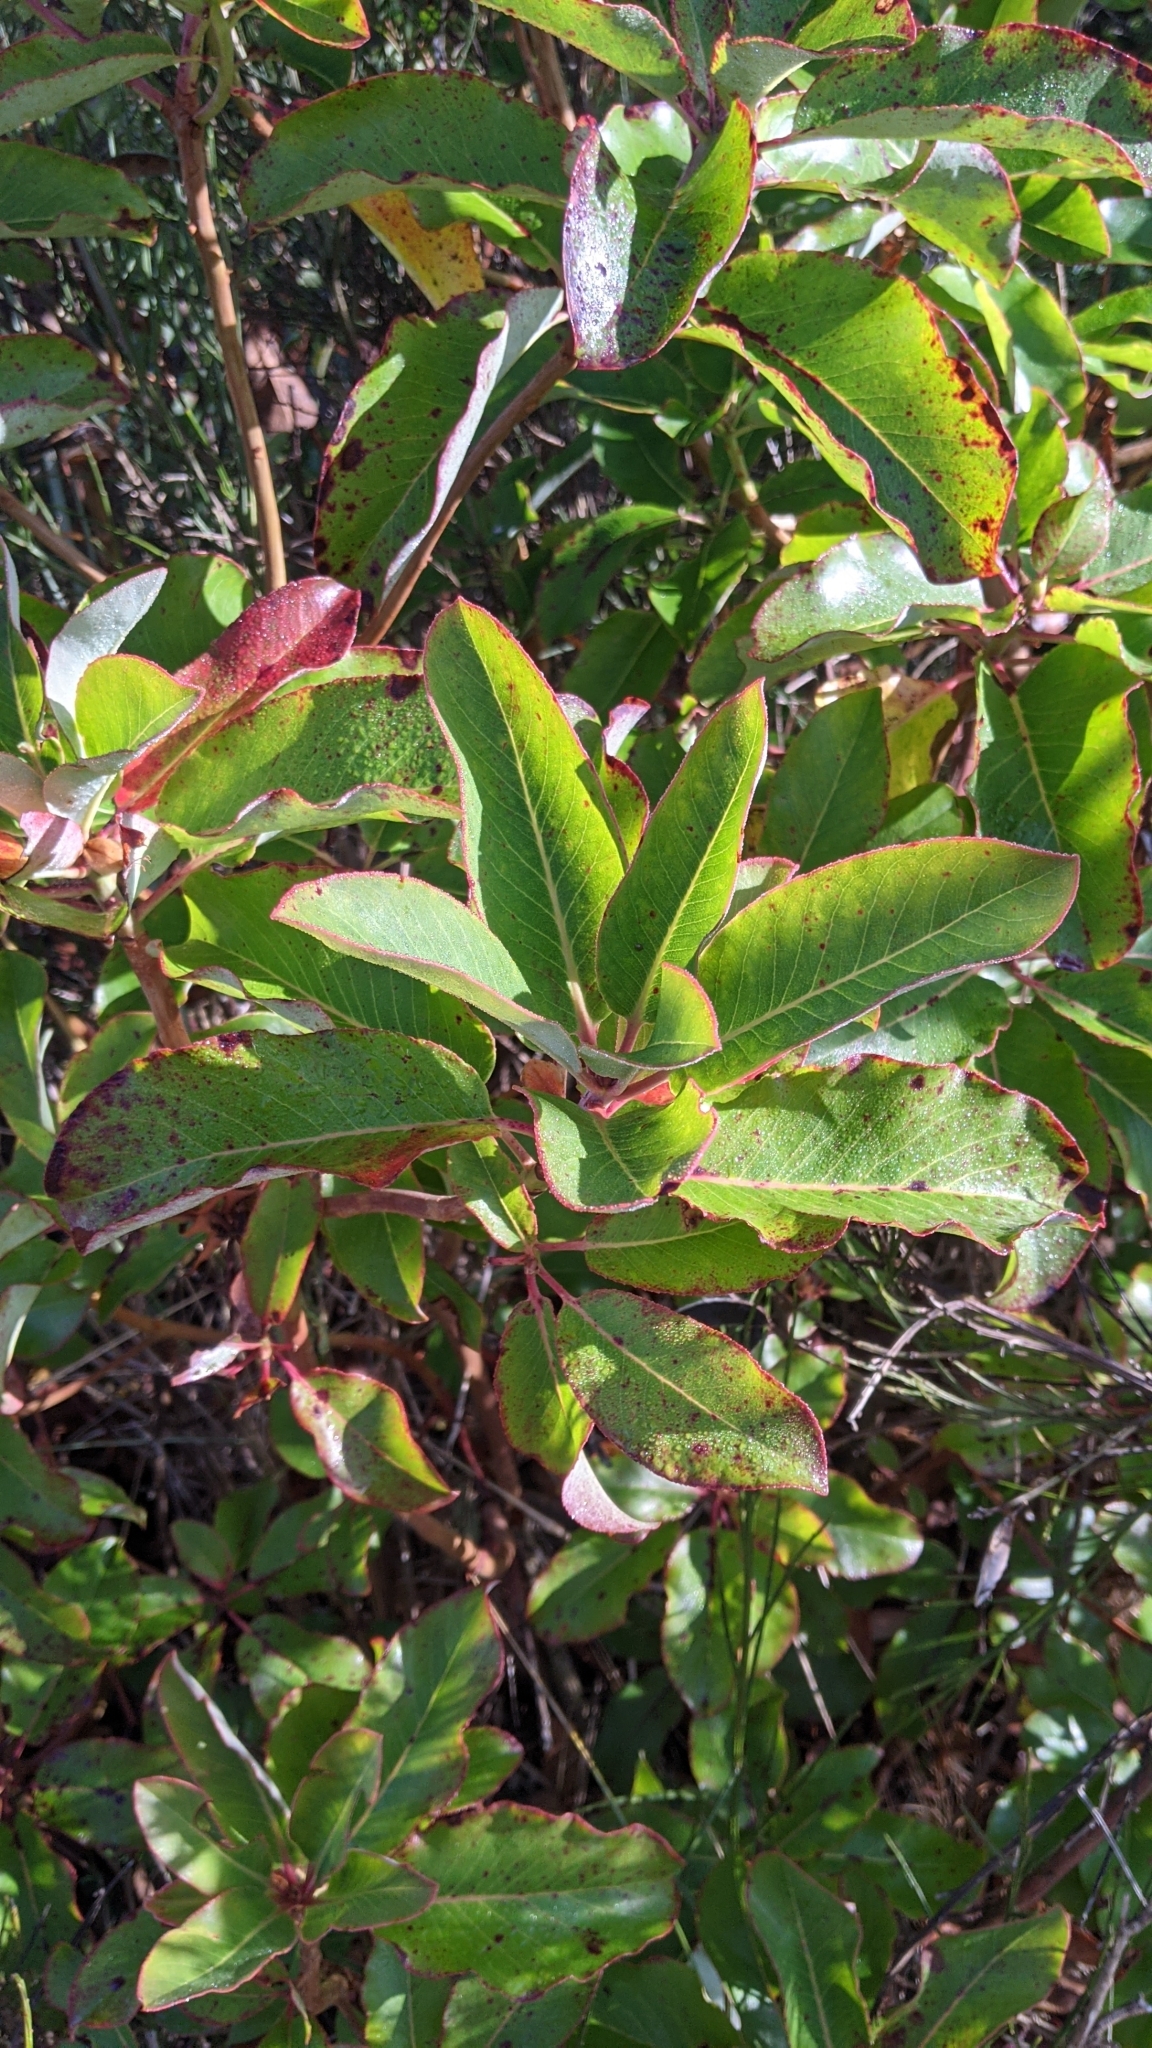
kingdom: Plantae
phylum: Tracheophyta
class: Magnoliopsida
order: Ericales
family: Ericaceae
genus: Arbutus
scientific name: Arbutus menziesii
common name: Pacific madrone
